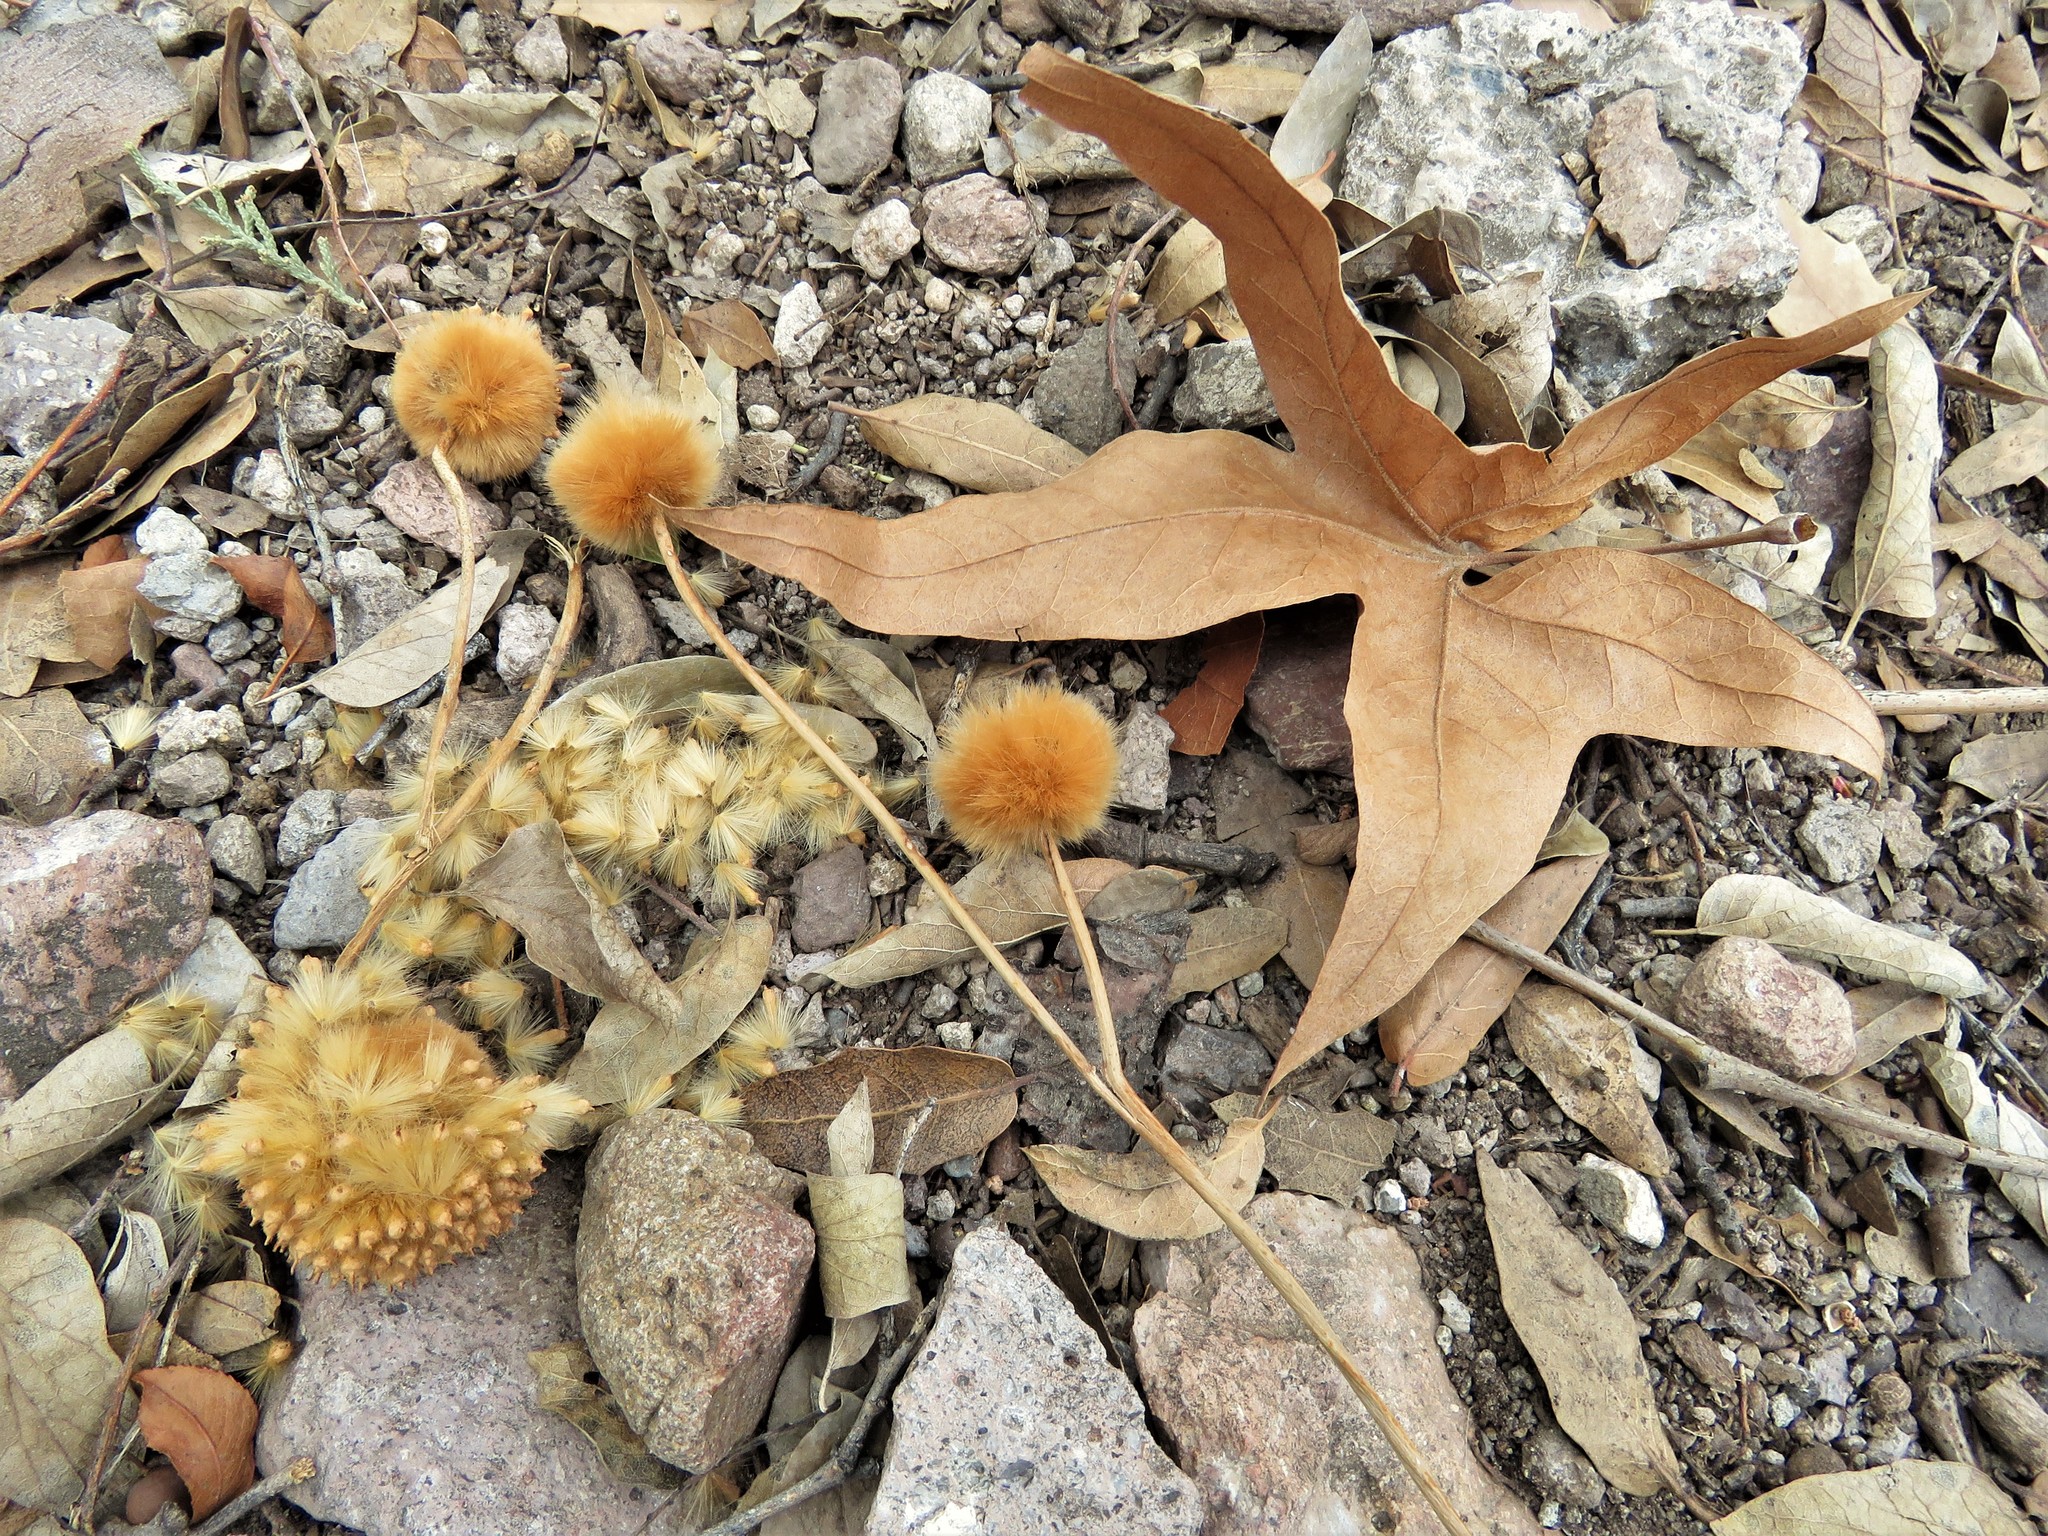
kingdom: Plantae
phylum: Tracheophyta
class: Magnoliopsida
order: Proteales
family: Platanaceae
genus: Platanus
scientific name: Platanus wrightii
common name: Arizona sycamore
